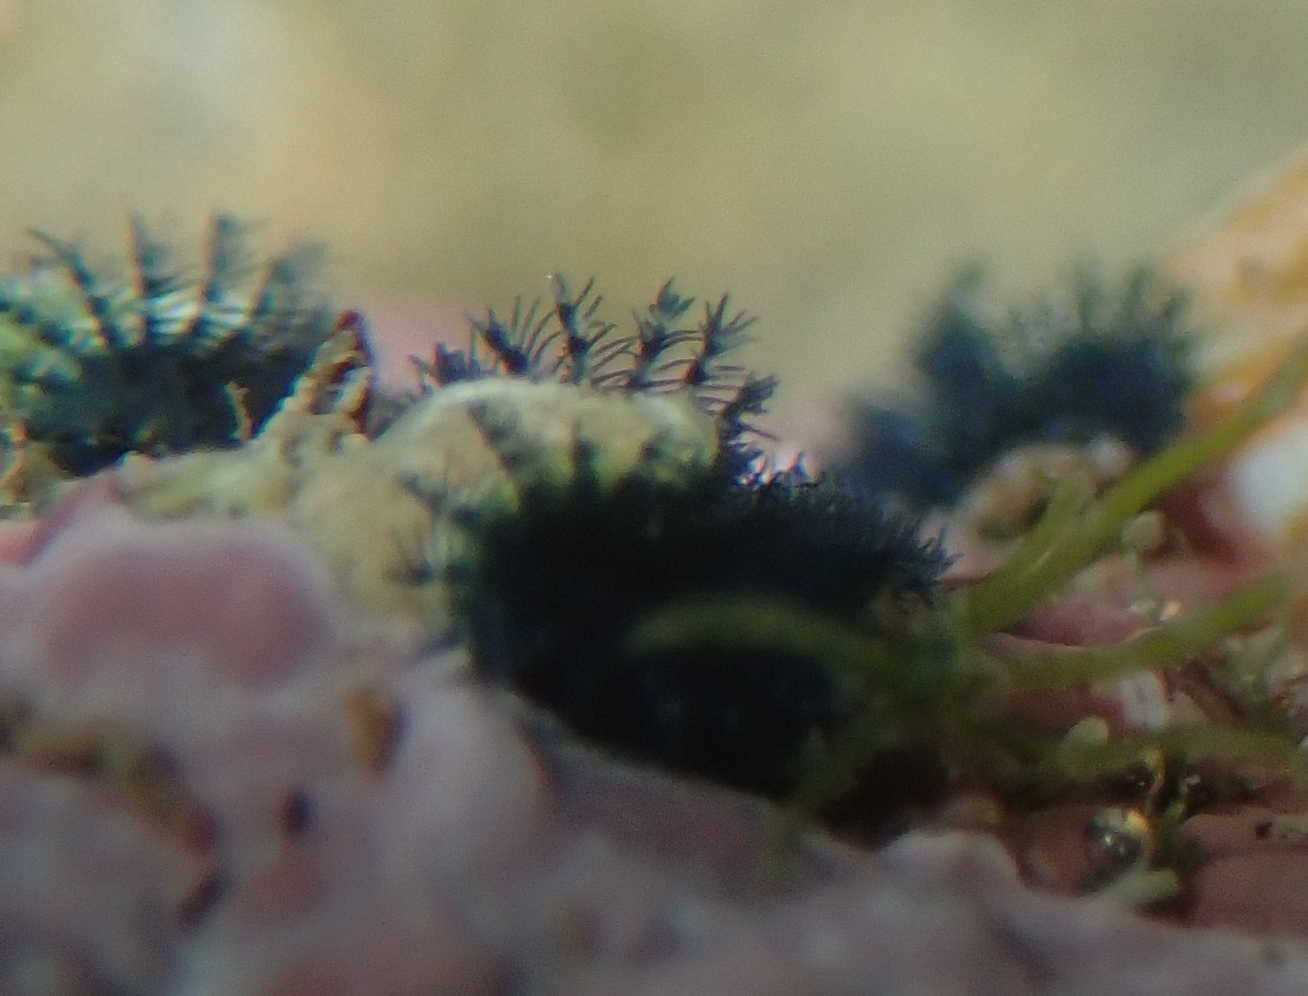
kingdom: Animalia
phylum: Annelida
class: Polychaeta
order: Sabellida
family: Serpulidae
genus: Spirobranchus
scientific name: Spirobranchus cariniferus
